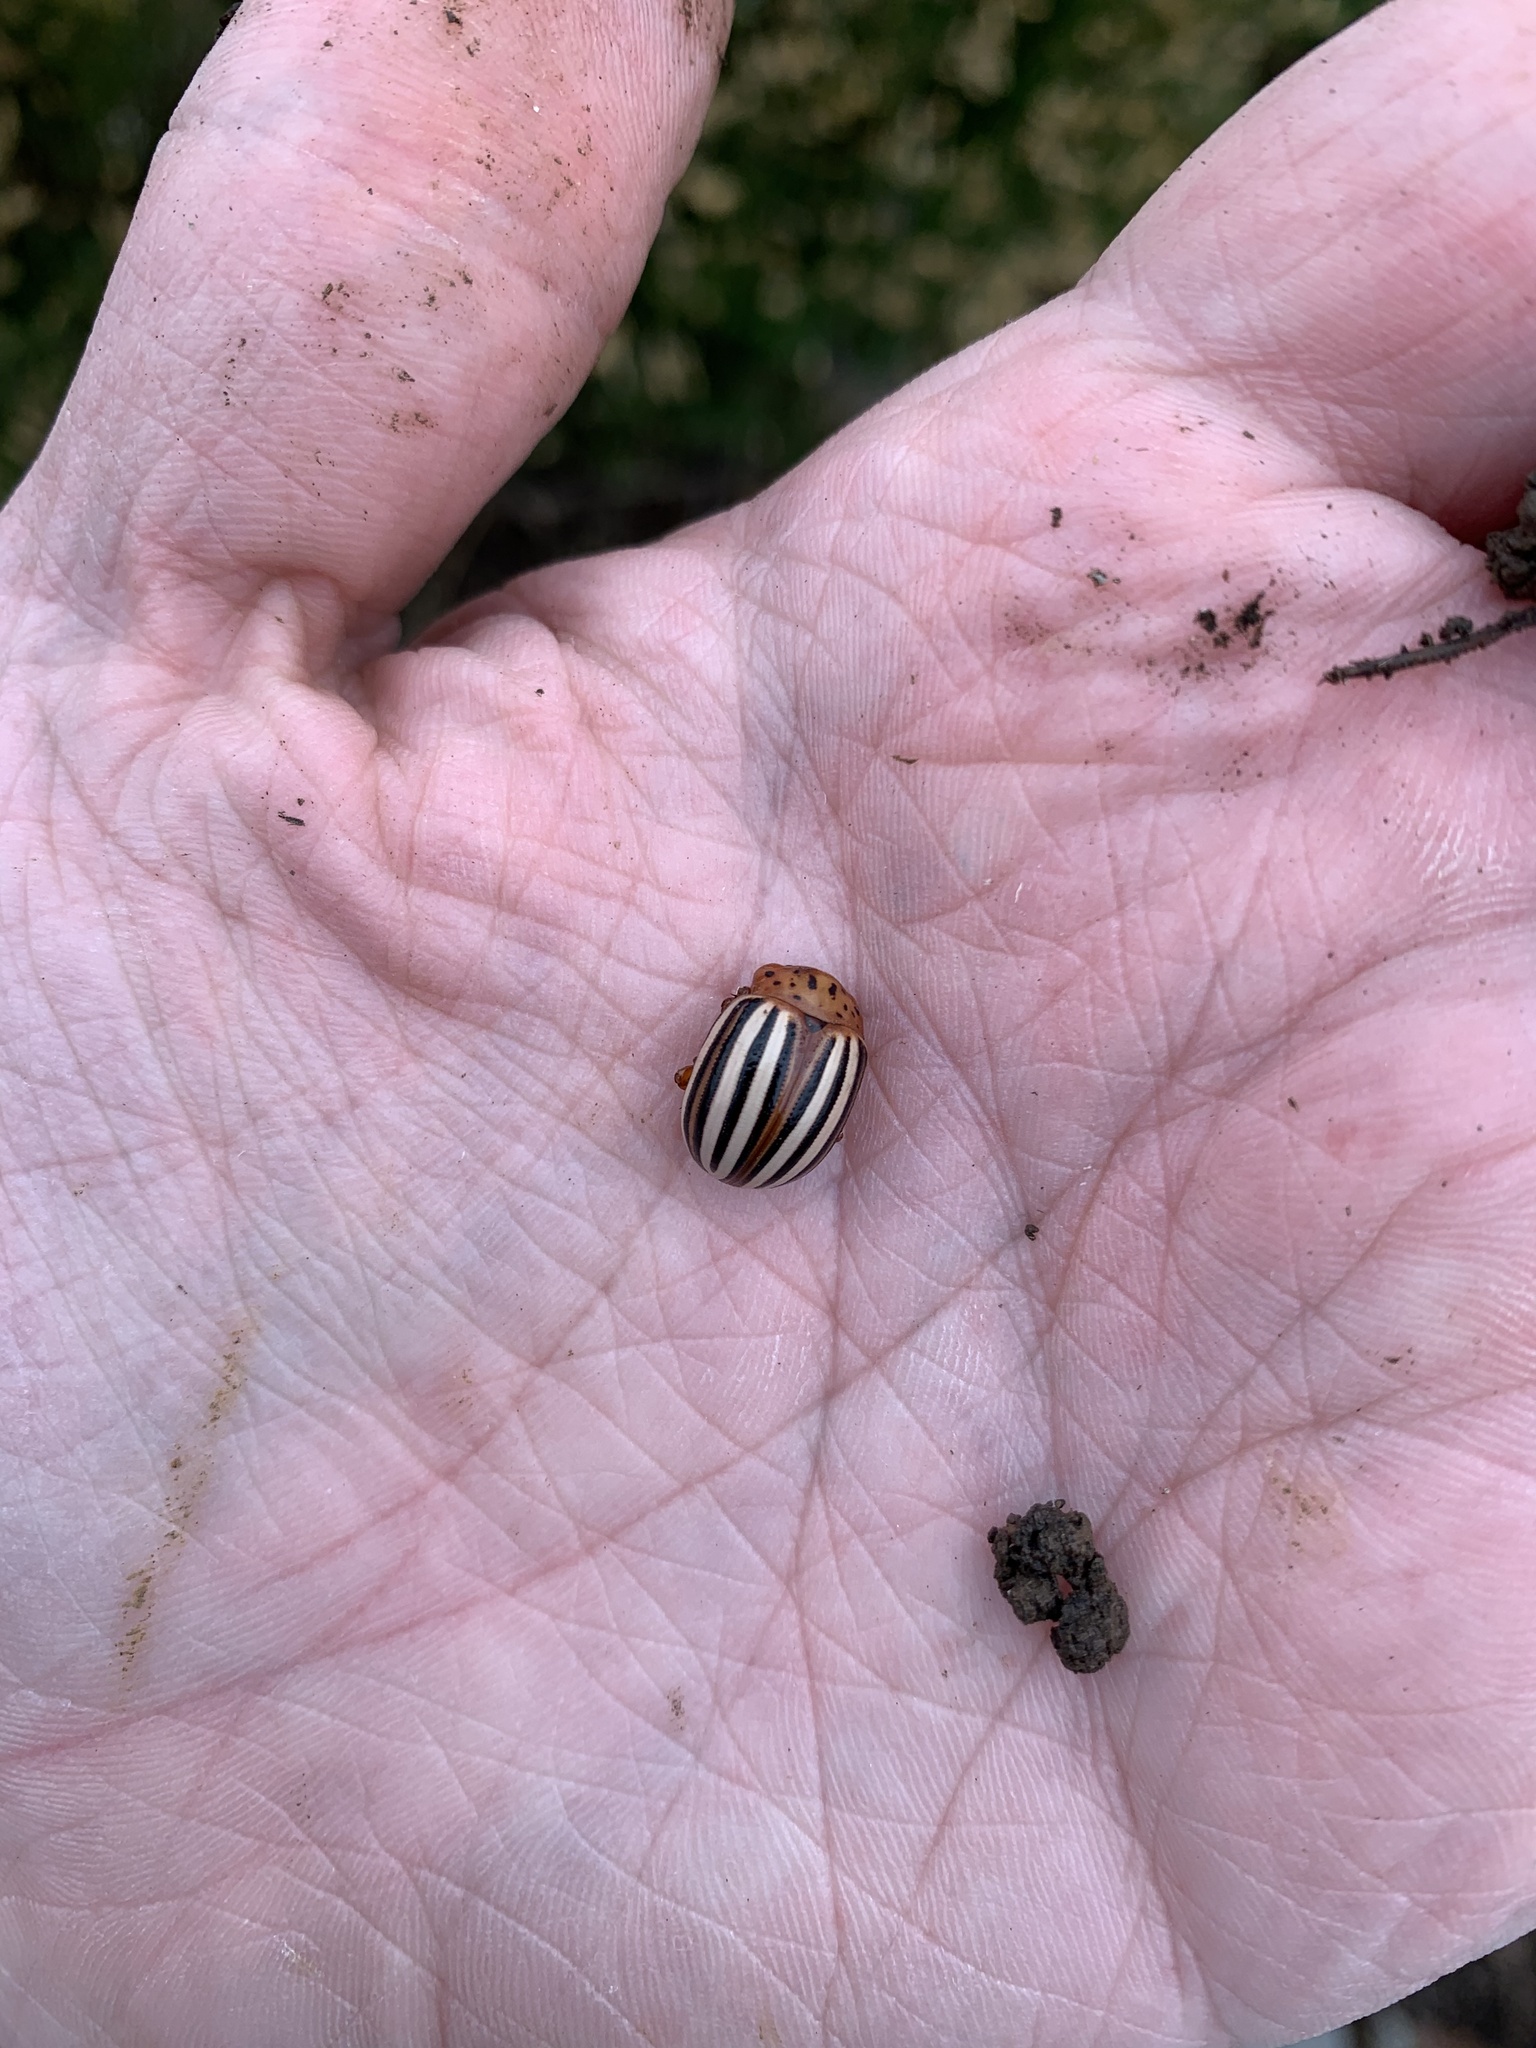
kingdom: Animalia
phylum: Arthropoda
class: Insecta
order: Coleoptera
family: Chrysomelidae
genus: Leptinotarsa
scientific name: Leptinotarsa juncta
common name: False potato beetle
